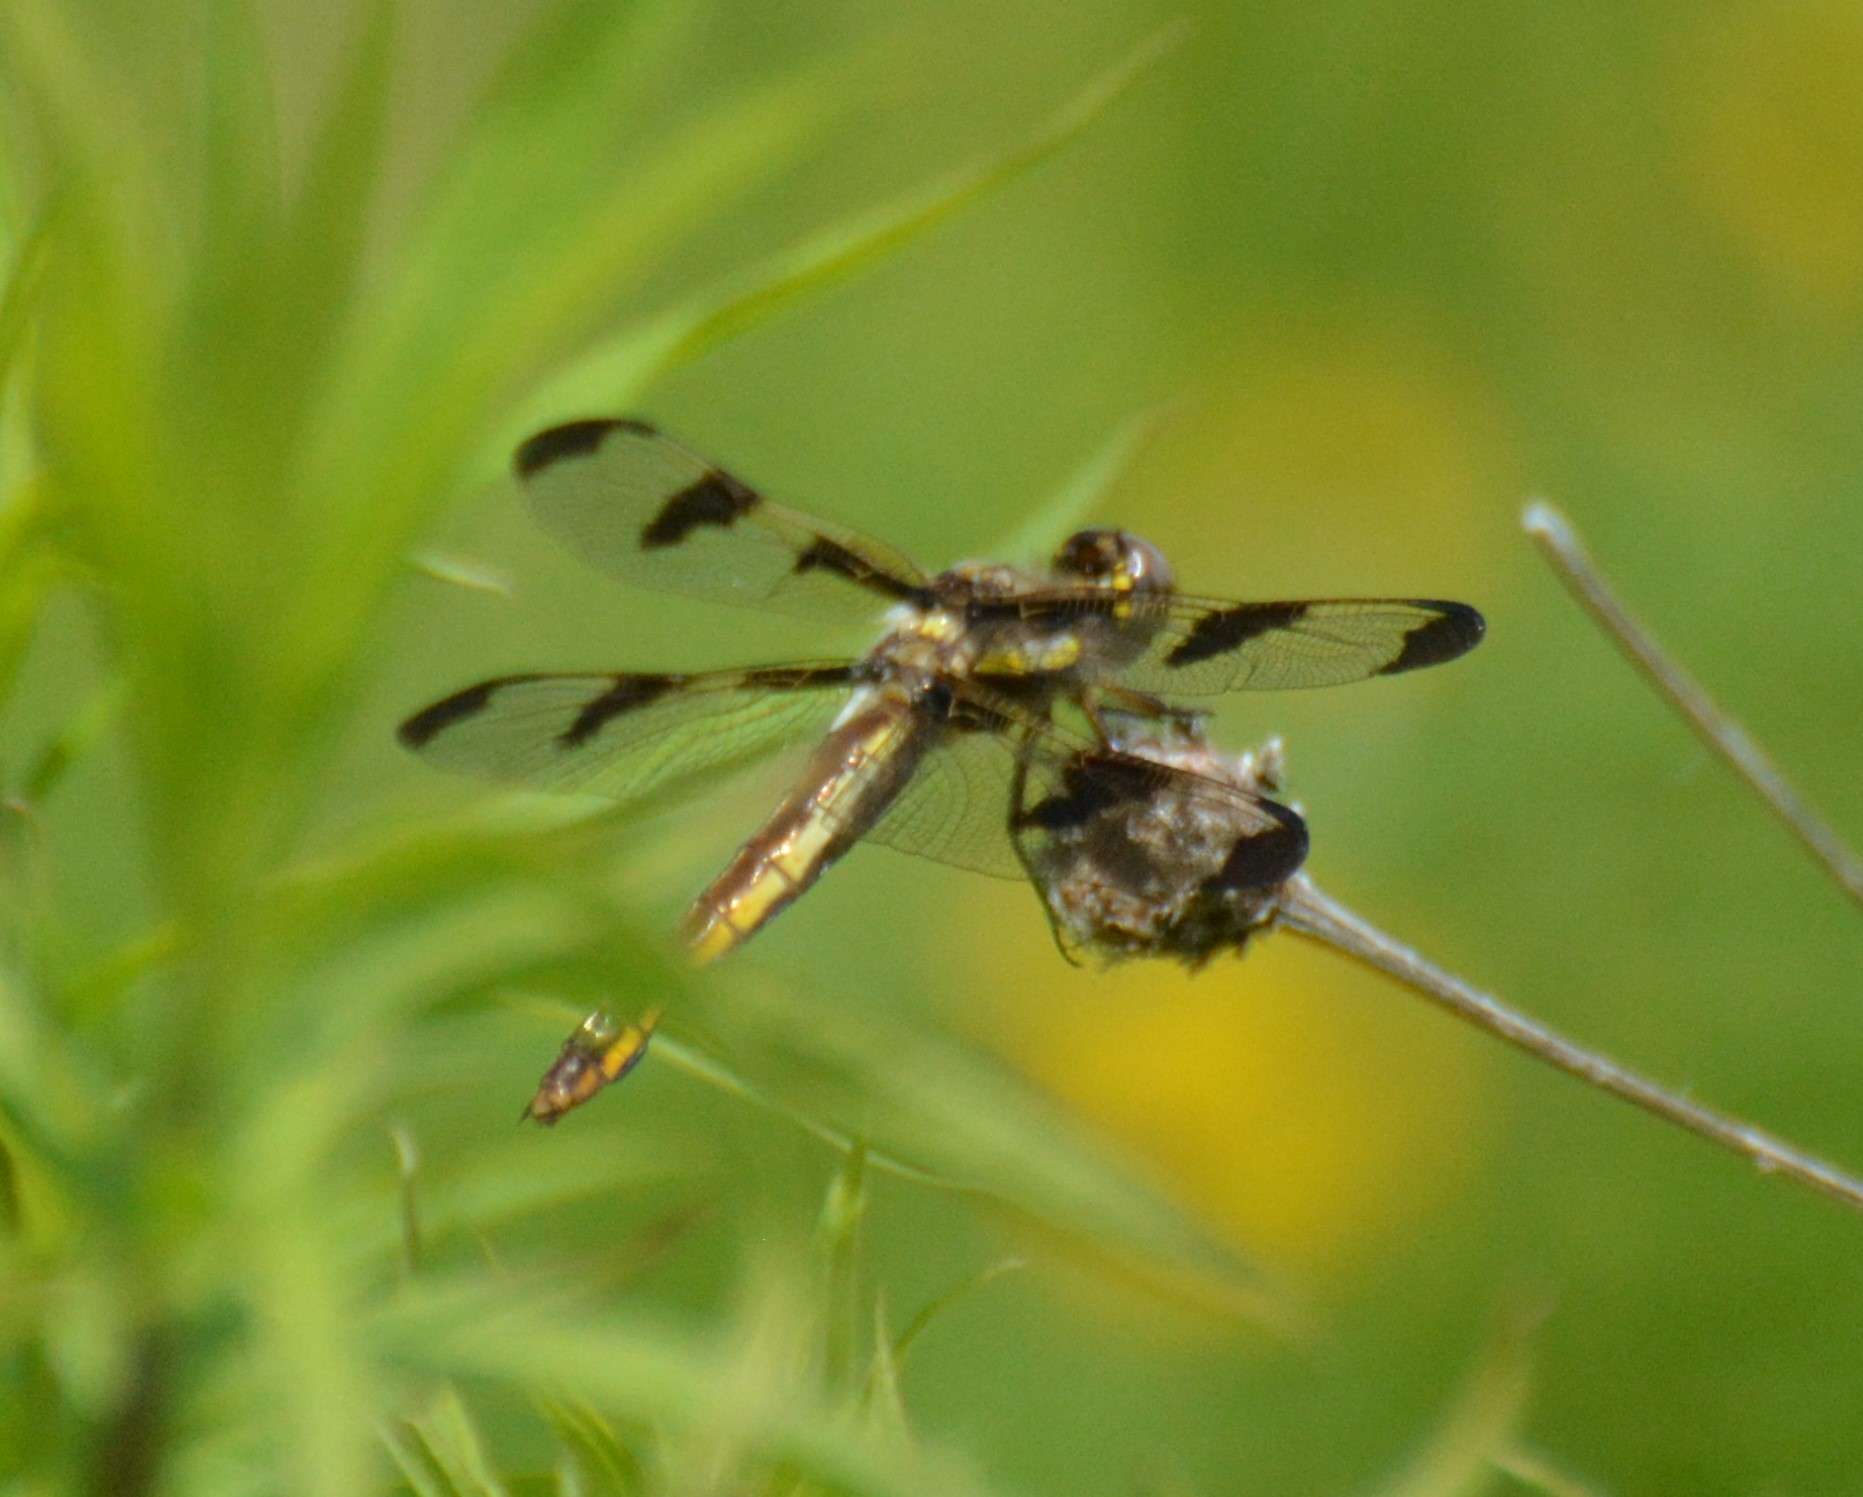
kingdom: Animalia
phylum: Arthropoda
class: Insecta
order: Odonata
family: Libellulidae
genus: Libellula
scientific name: Libellula pulchella
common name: Twelve-spotted skimmer
